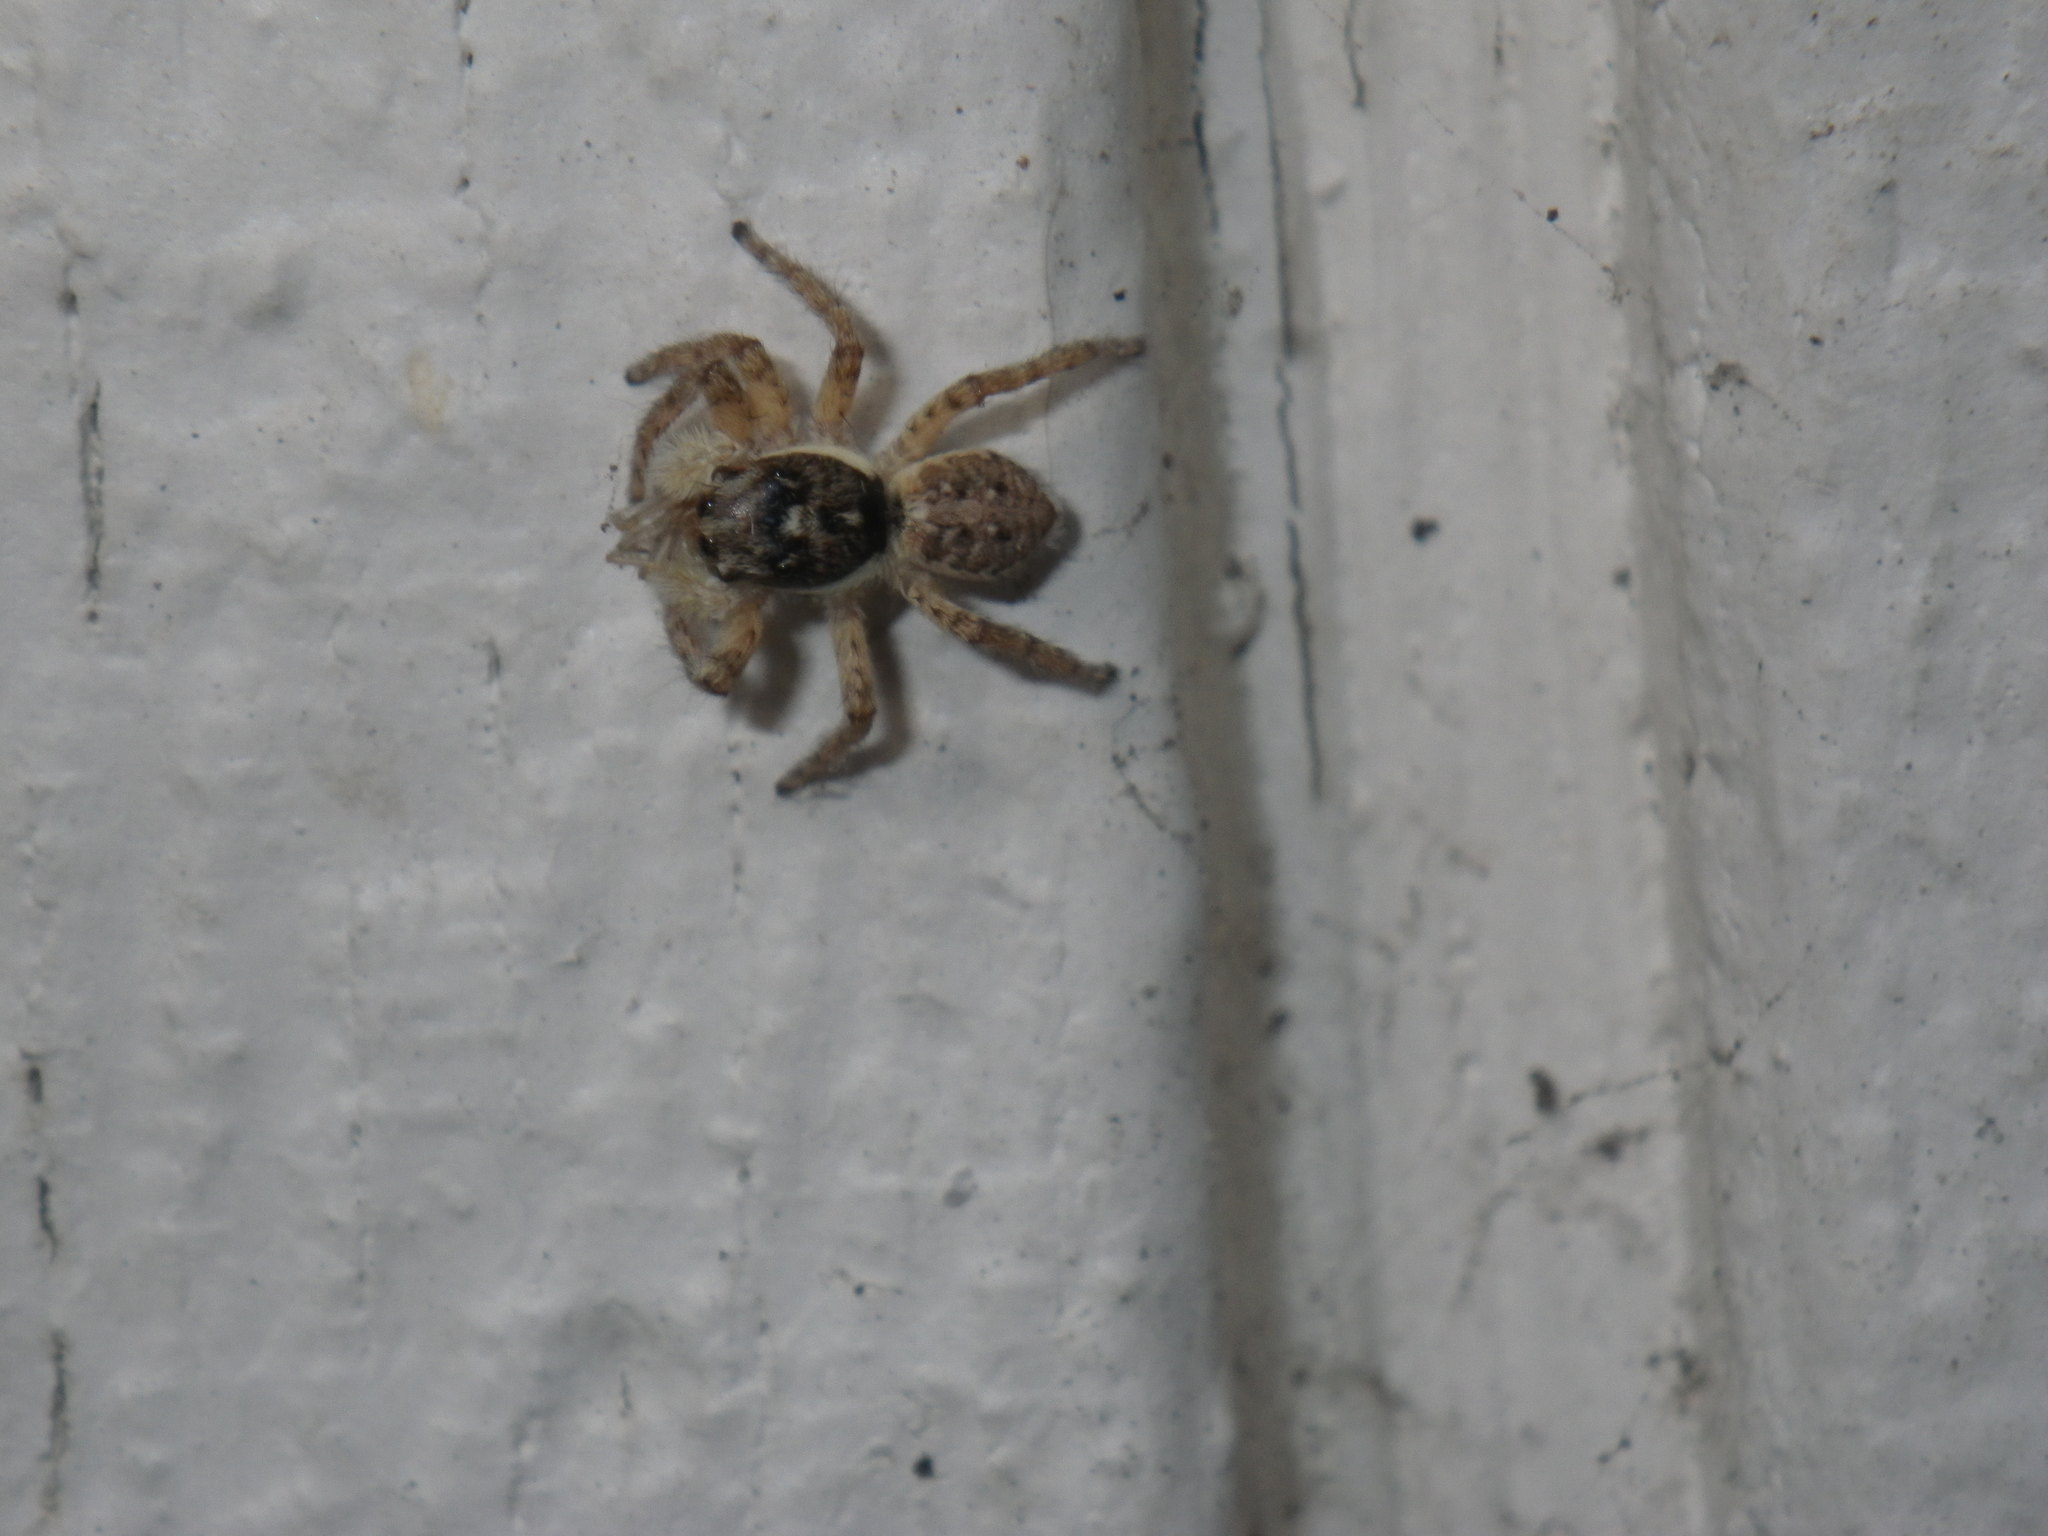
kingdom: Animalia
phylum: Arthropoda
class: Arachnida
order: Araneae
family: Salticidae
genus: Menemerus
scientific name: Menemerus semilimbatus
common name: Jumping spider
